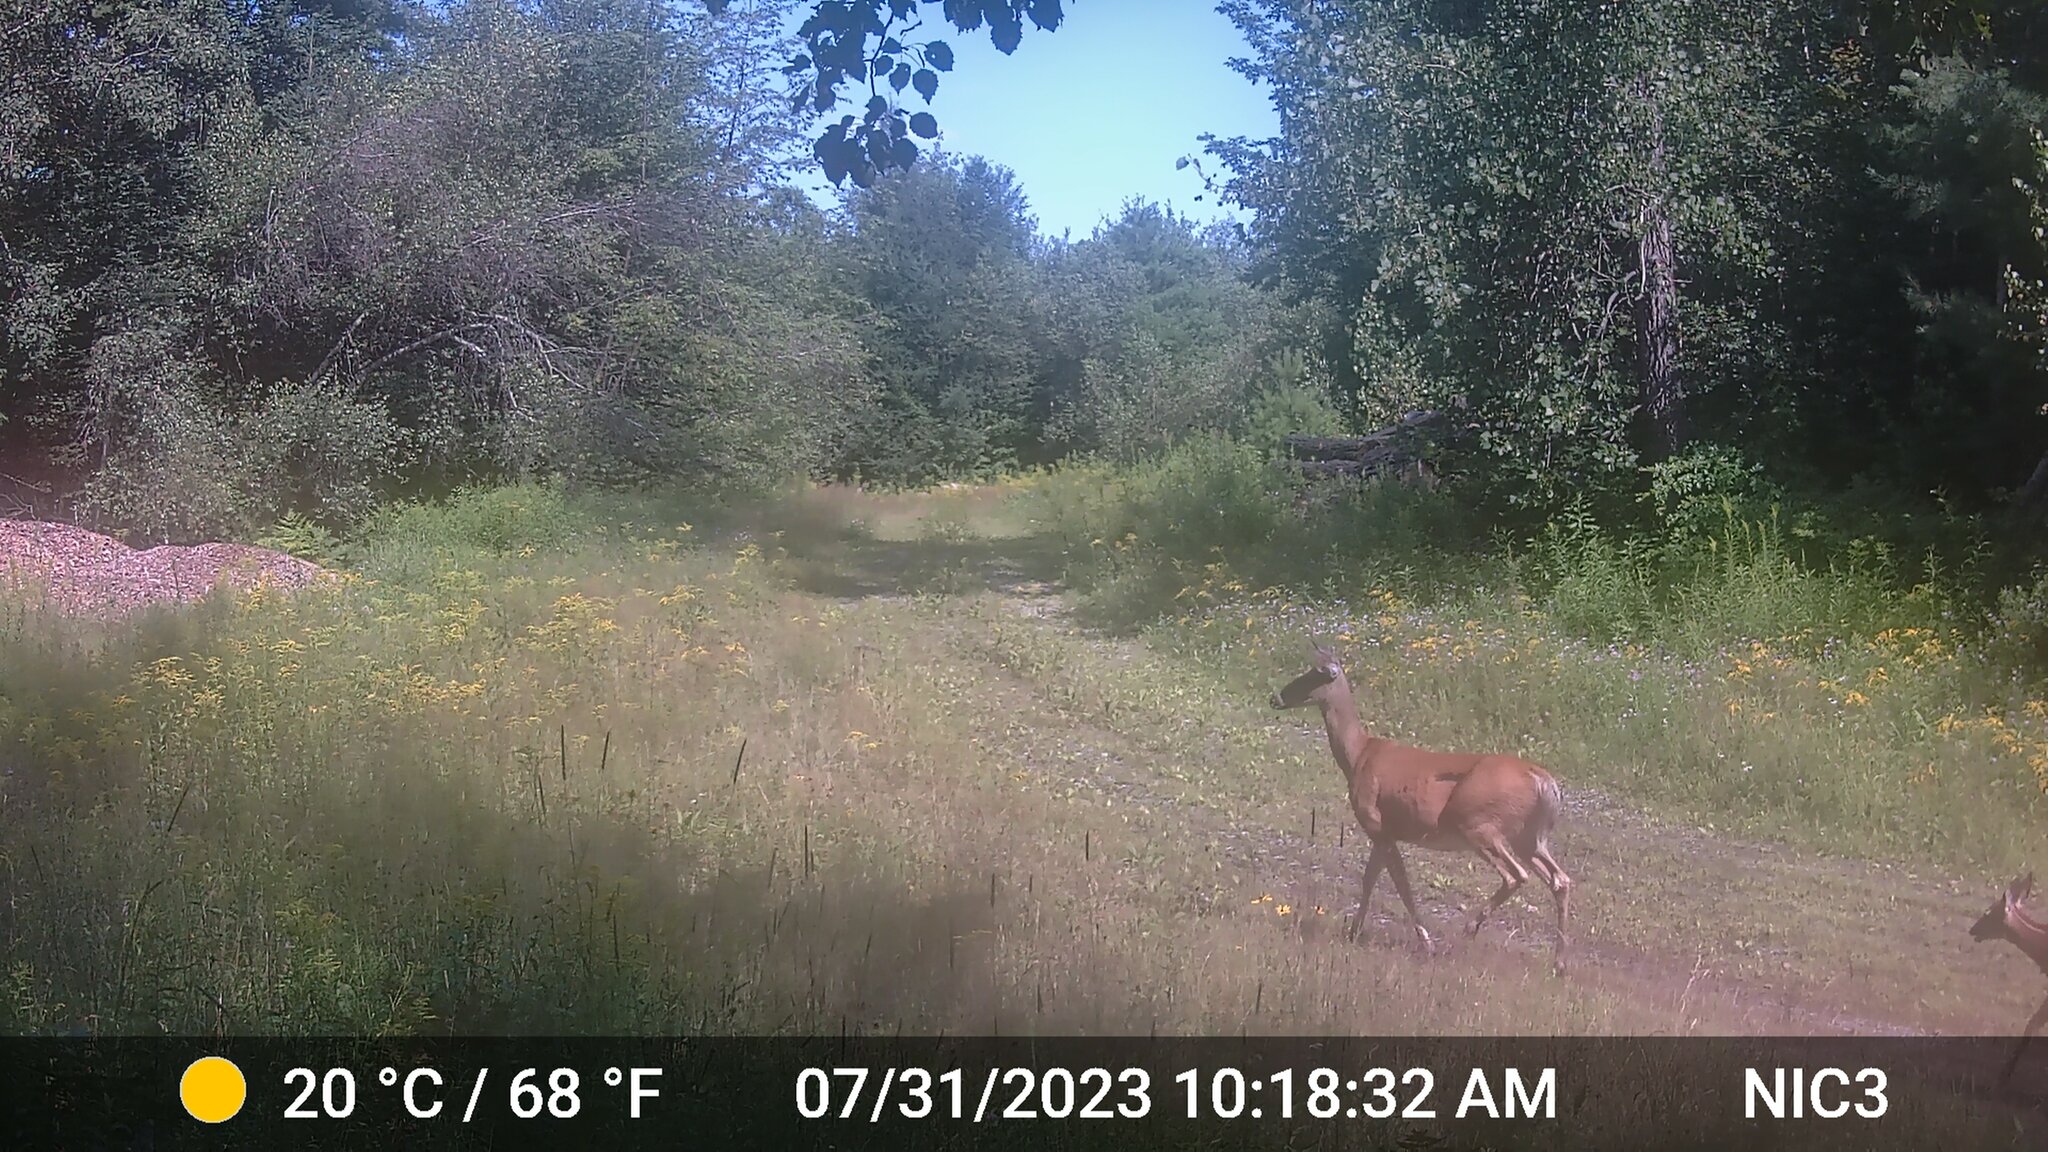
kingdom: Animalia
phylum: Chordata
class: Mammalia
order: Artiodactyla
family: Cervidae
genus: Odocoileus
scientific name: Odocoileus virginianus
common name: White-tailed deer
